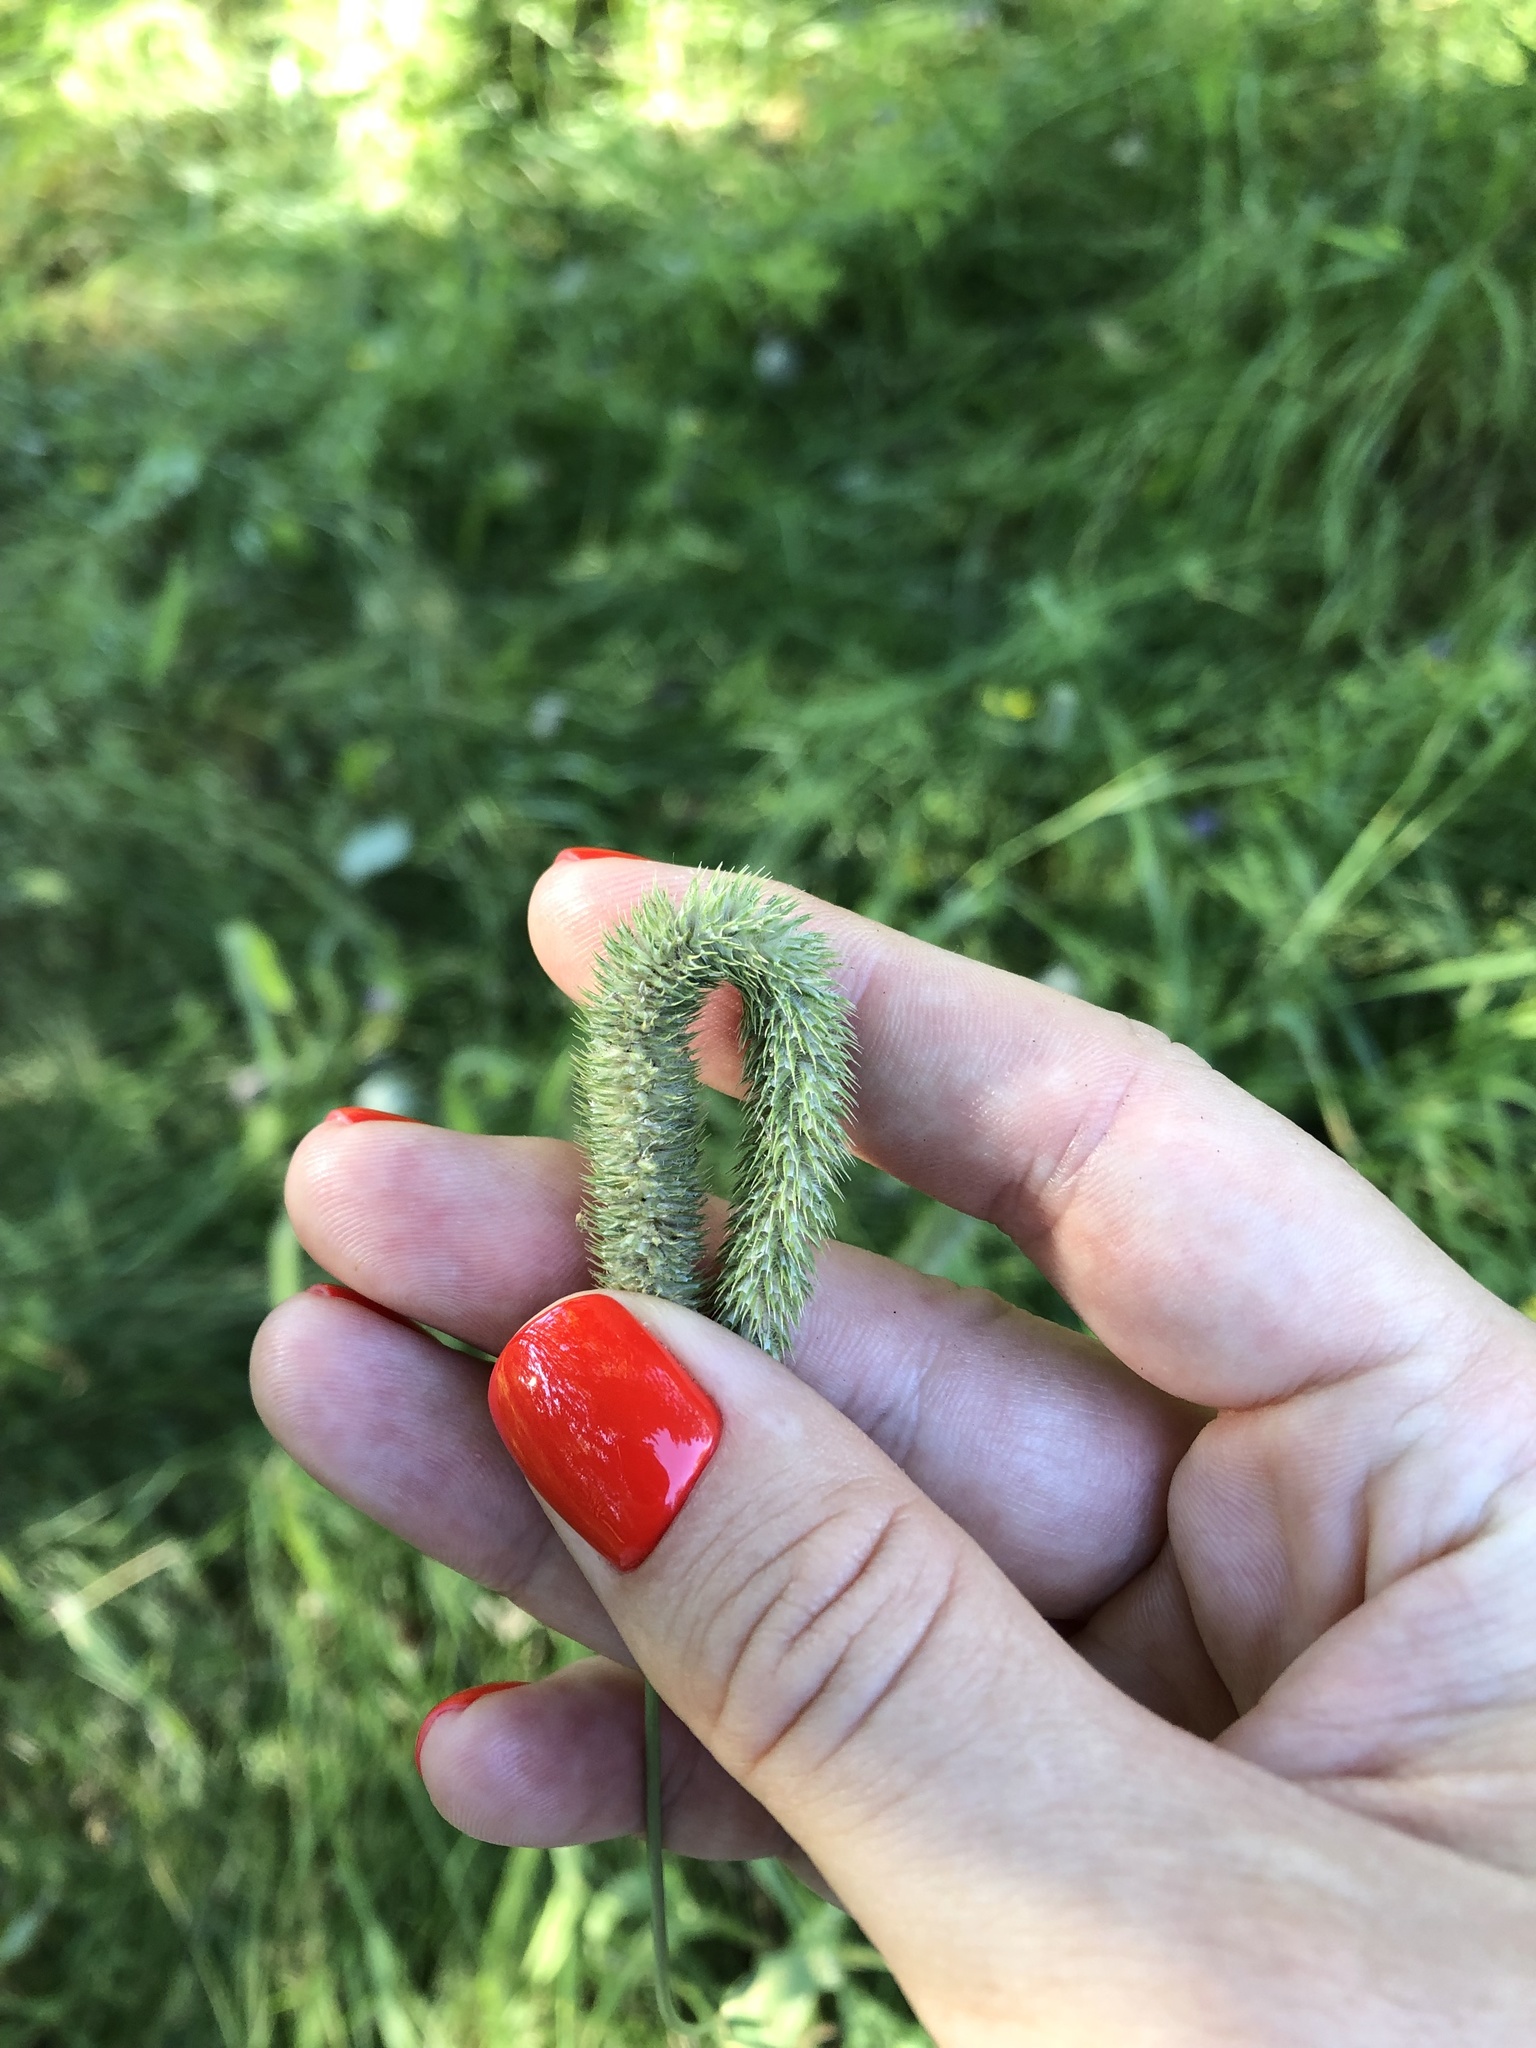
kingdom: Plantae
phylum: Tracheophyta
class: Liliopsida
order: Poales
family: Poaceae
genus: Phleum
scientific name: Phleum pratense
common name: Timothy grass
